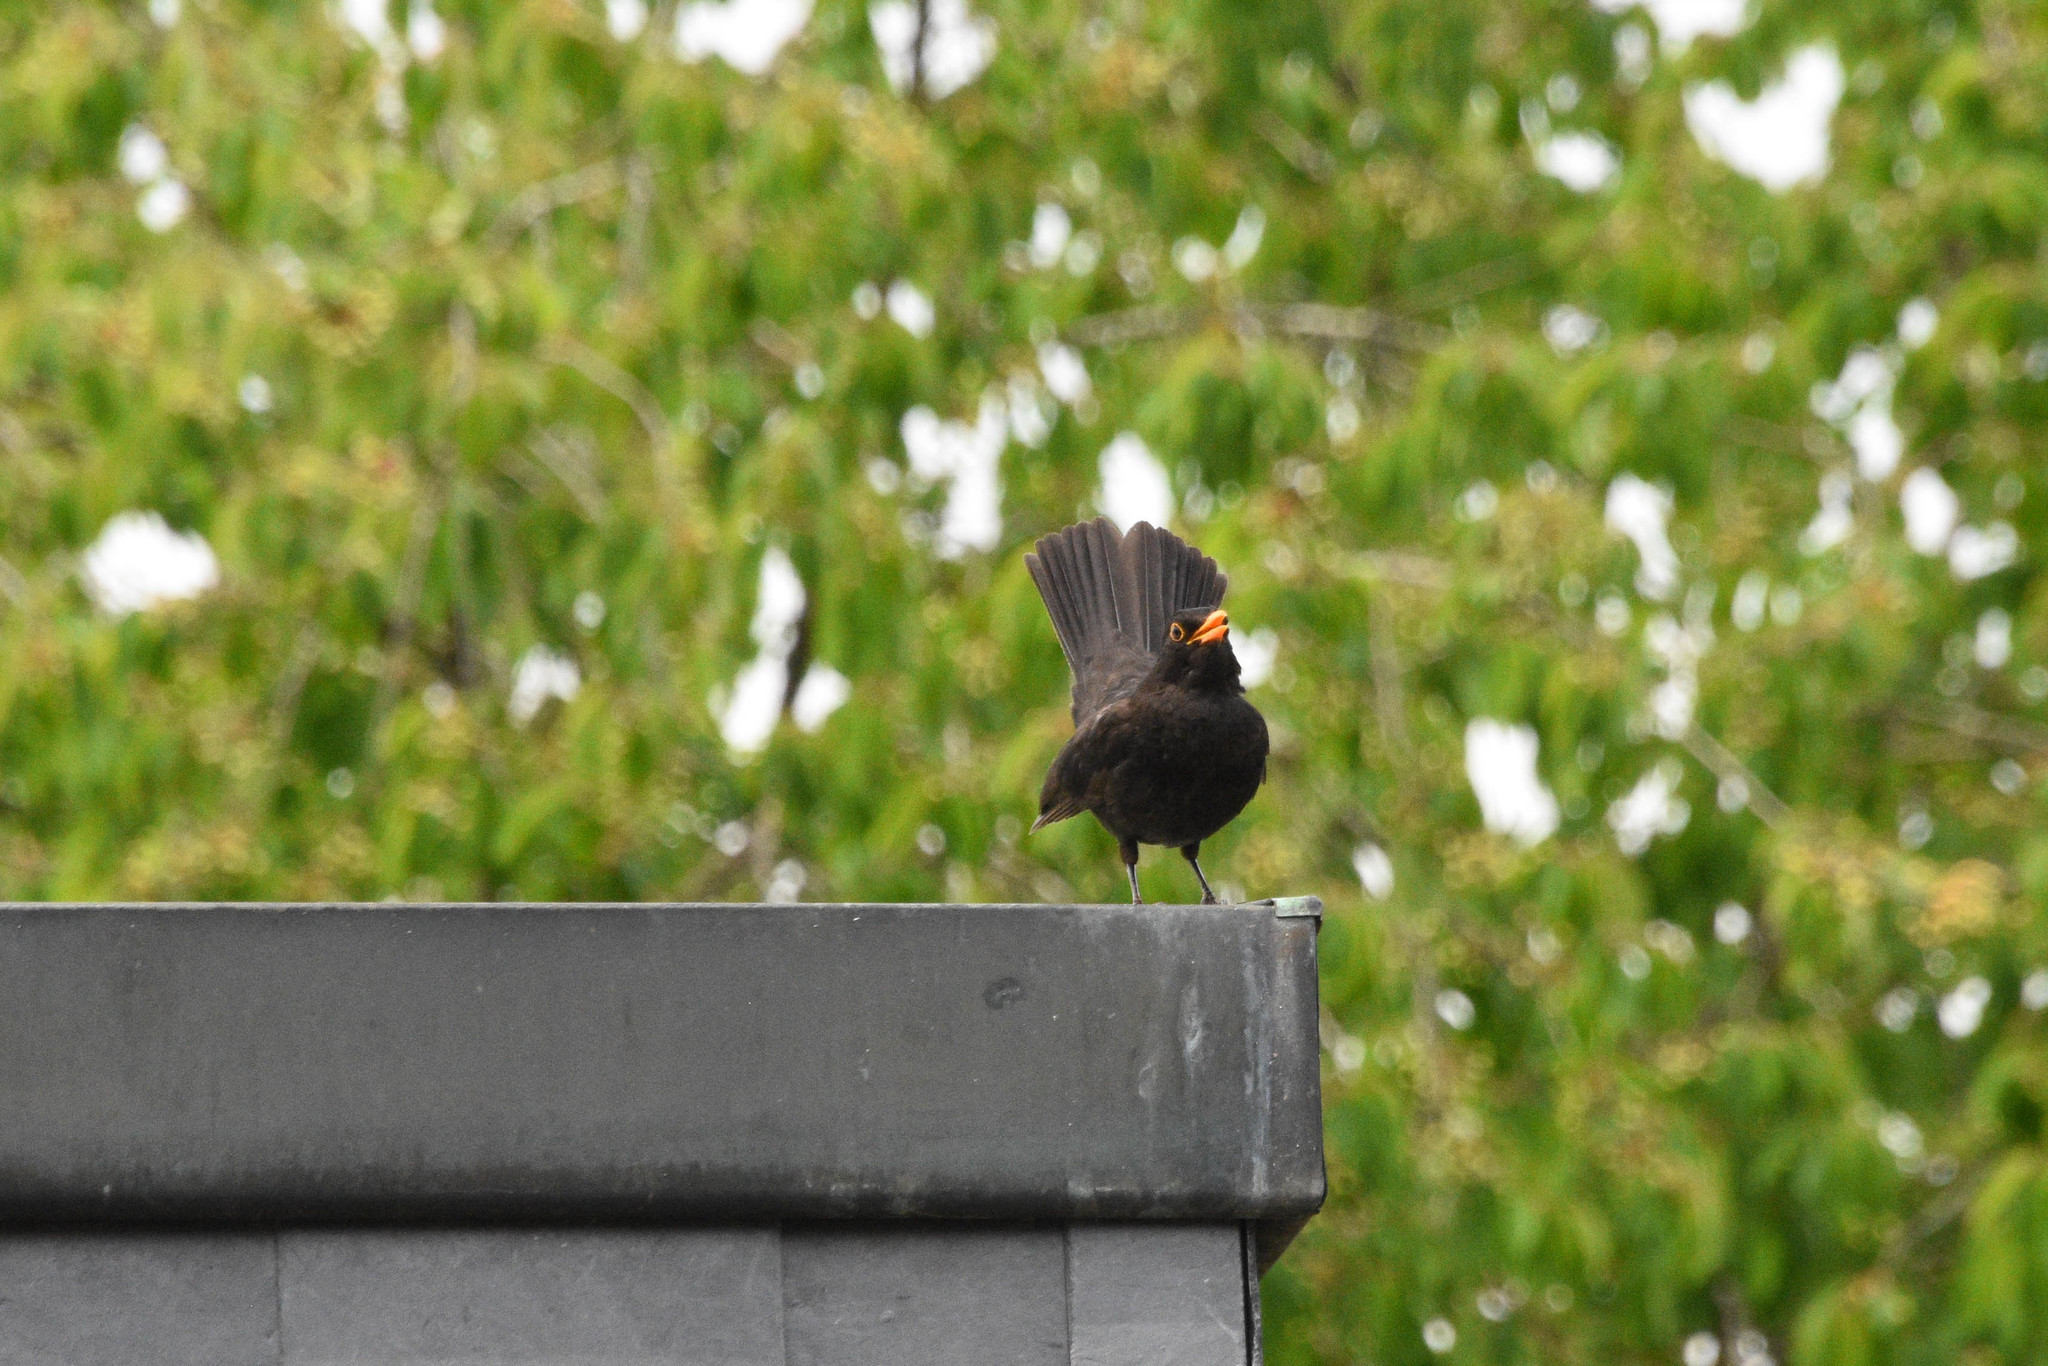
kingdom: Animalia
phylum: Chordata
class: Aves
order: Passeriformes
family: Turdidae
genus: Turdus
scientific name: Turdus merula
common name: Common blackbird
